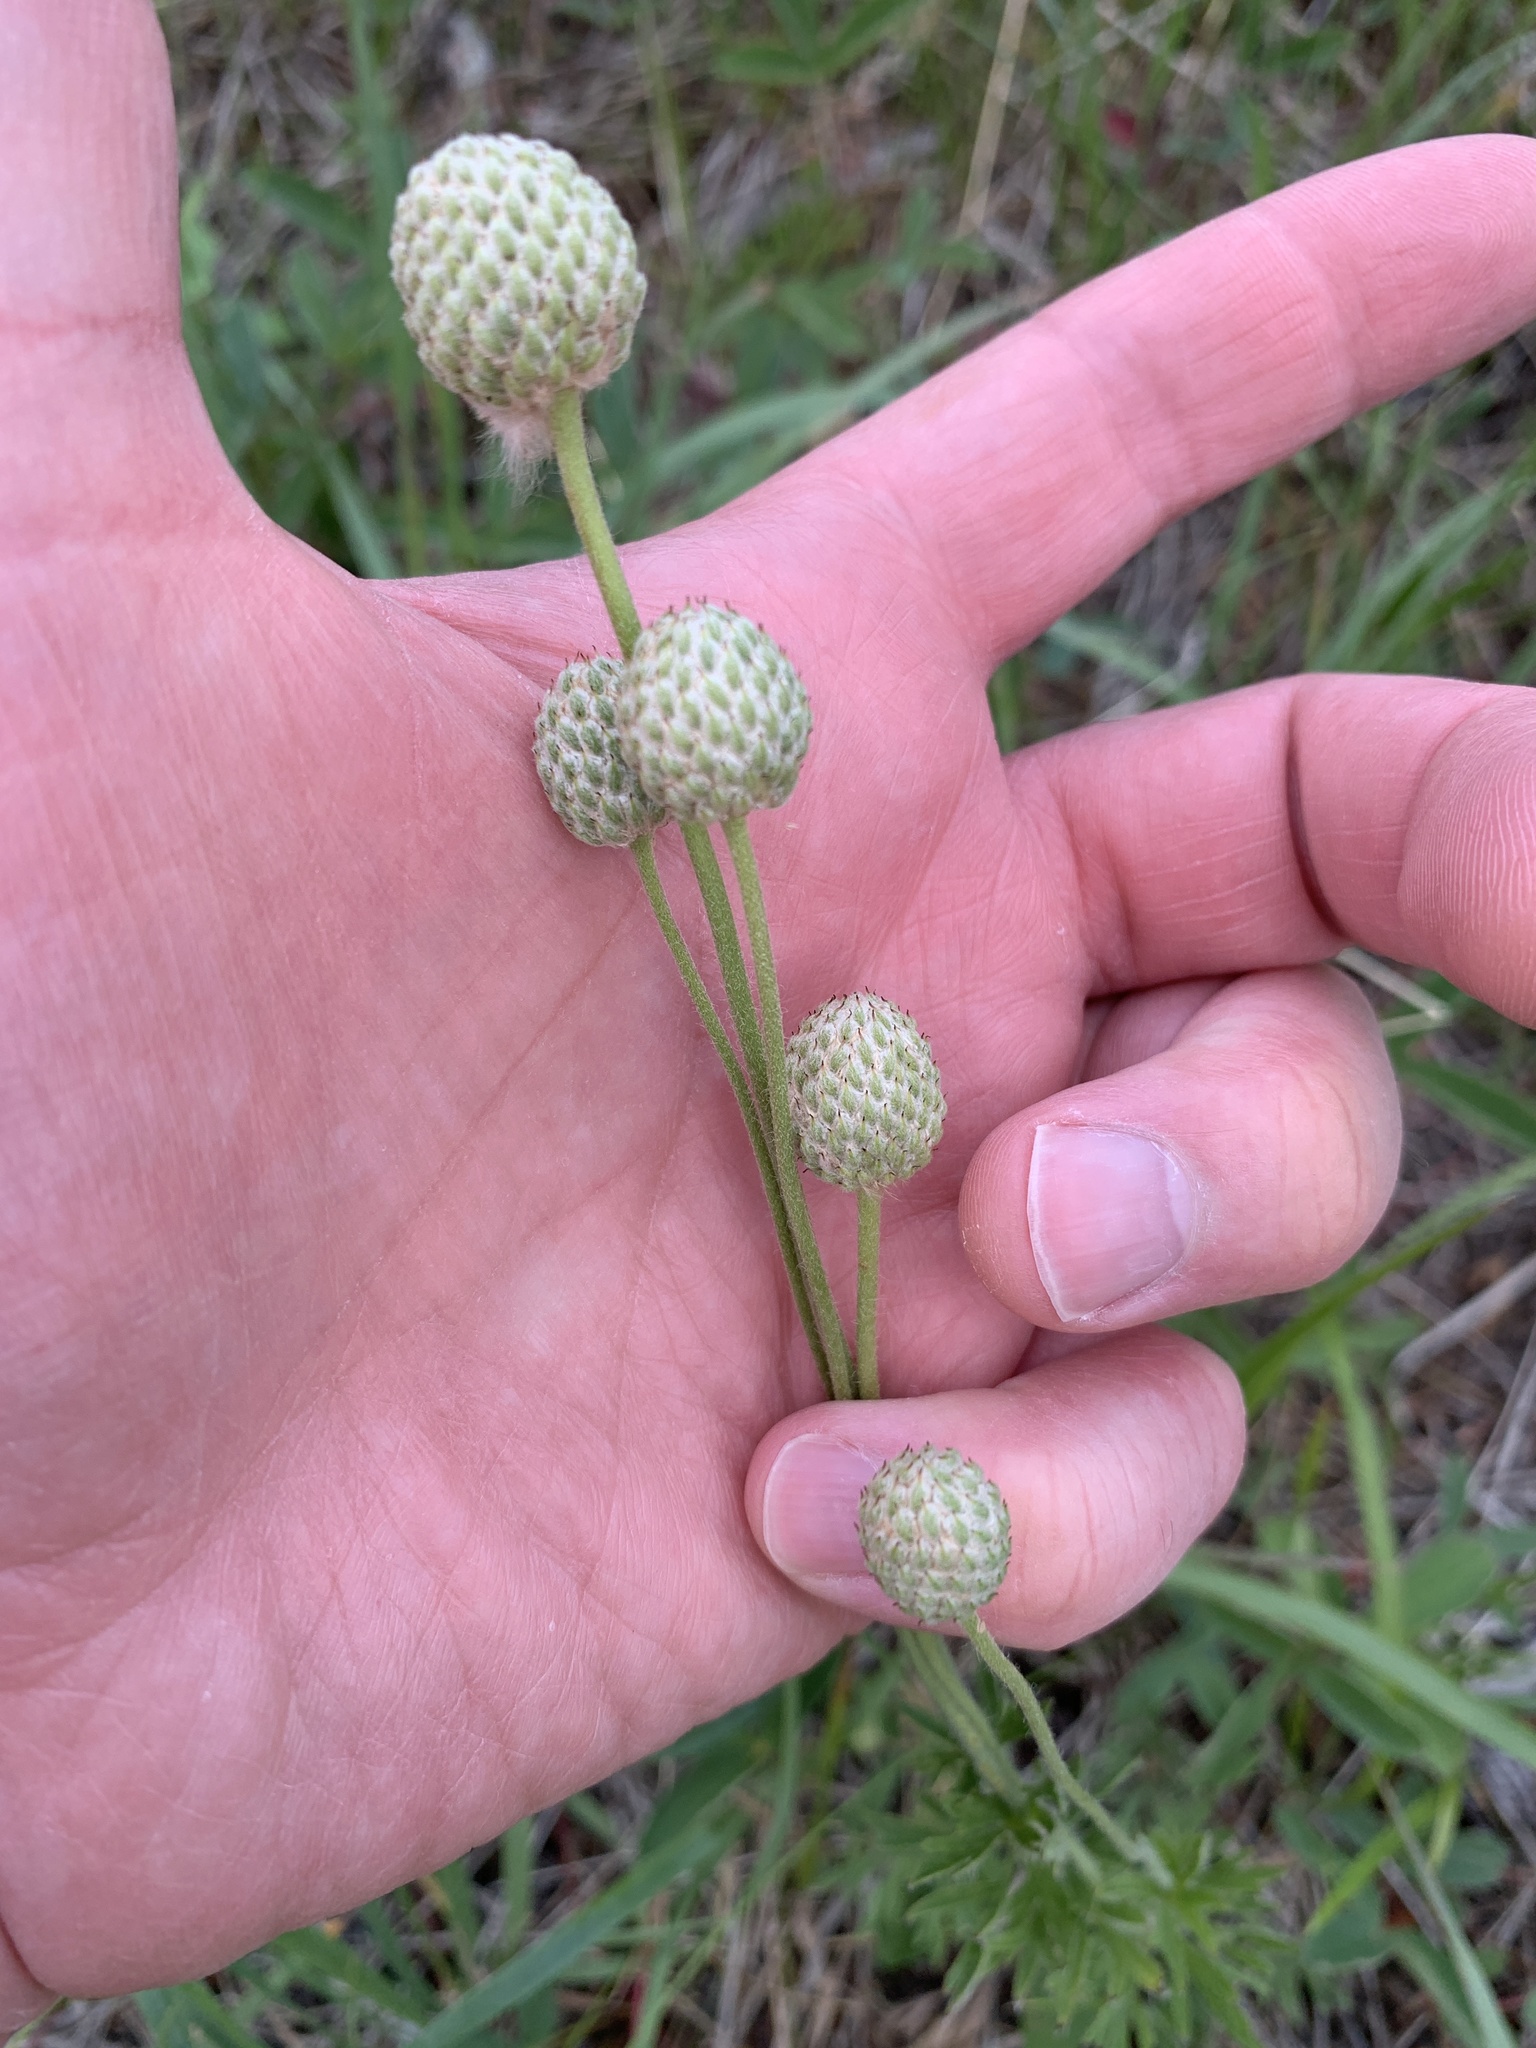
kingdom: Plantae
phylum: Tracheophyta
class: Magnoliopsida
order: Ranunculales
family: Ranunculaceae
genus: Anemone
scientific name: Anemone multifida
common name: Bird's-foot anemone
